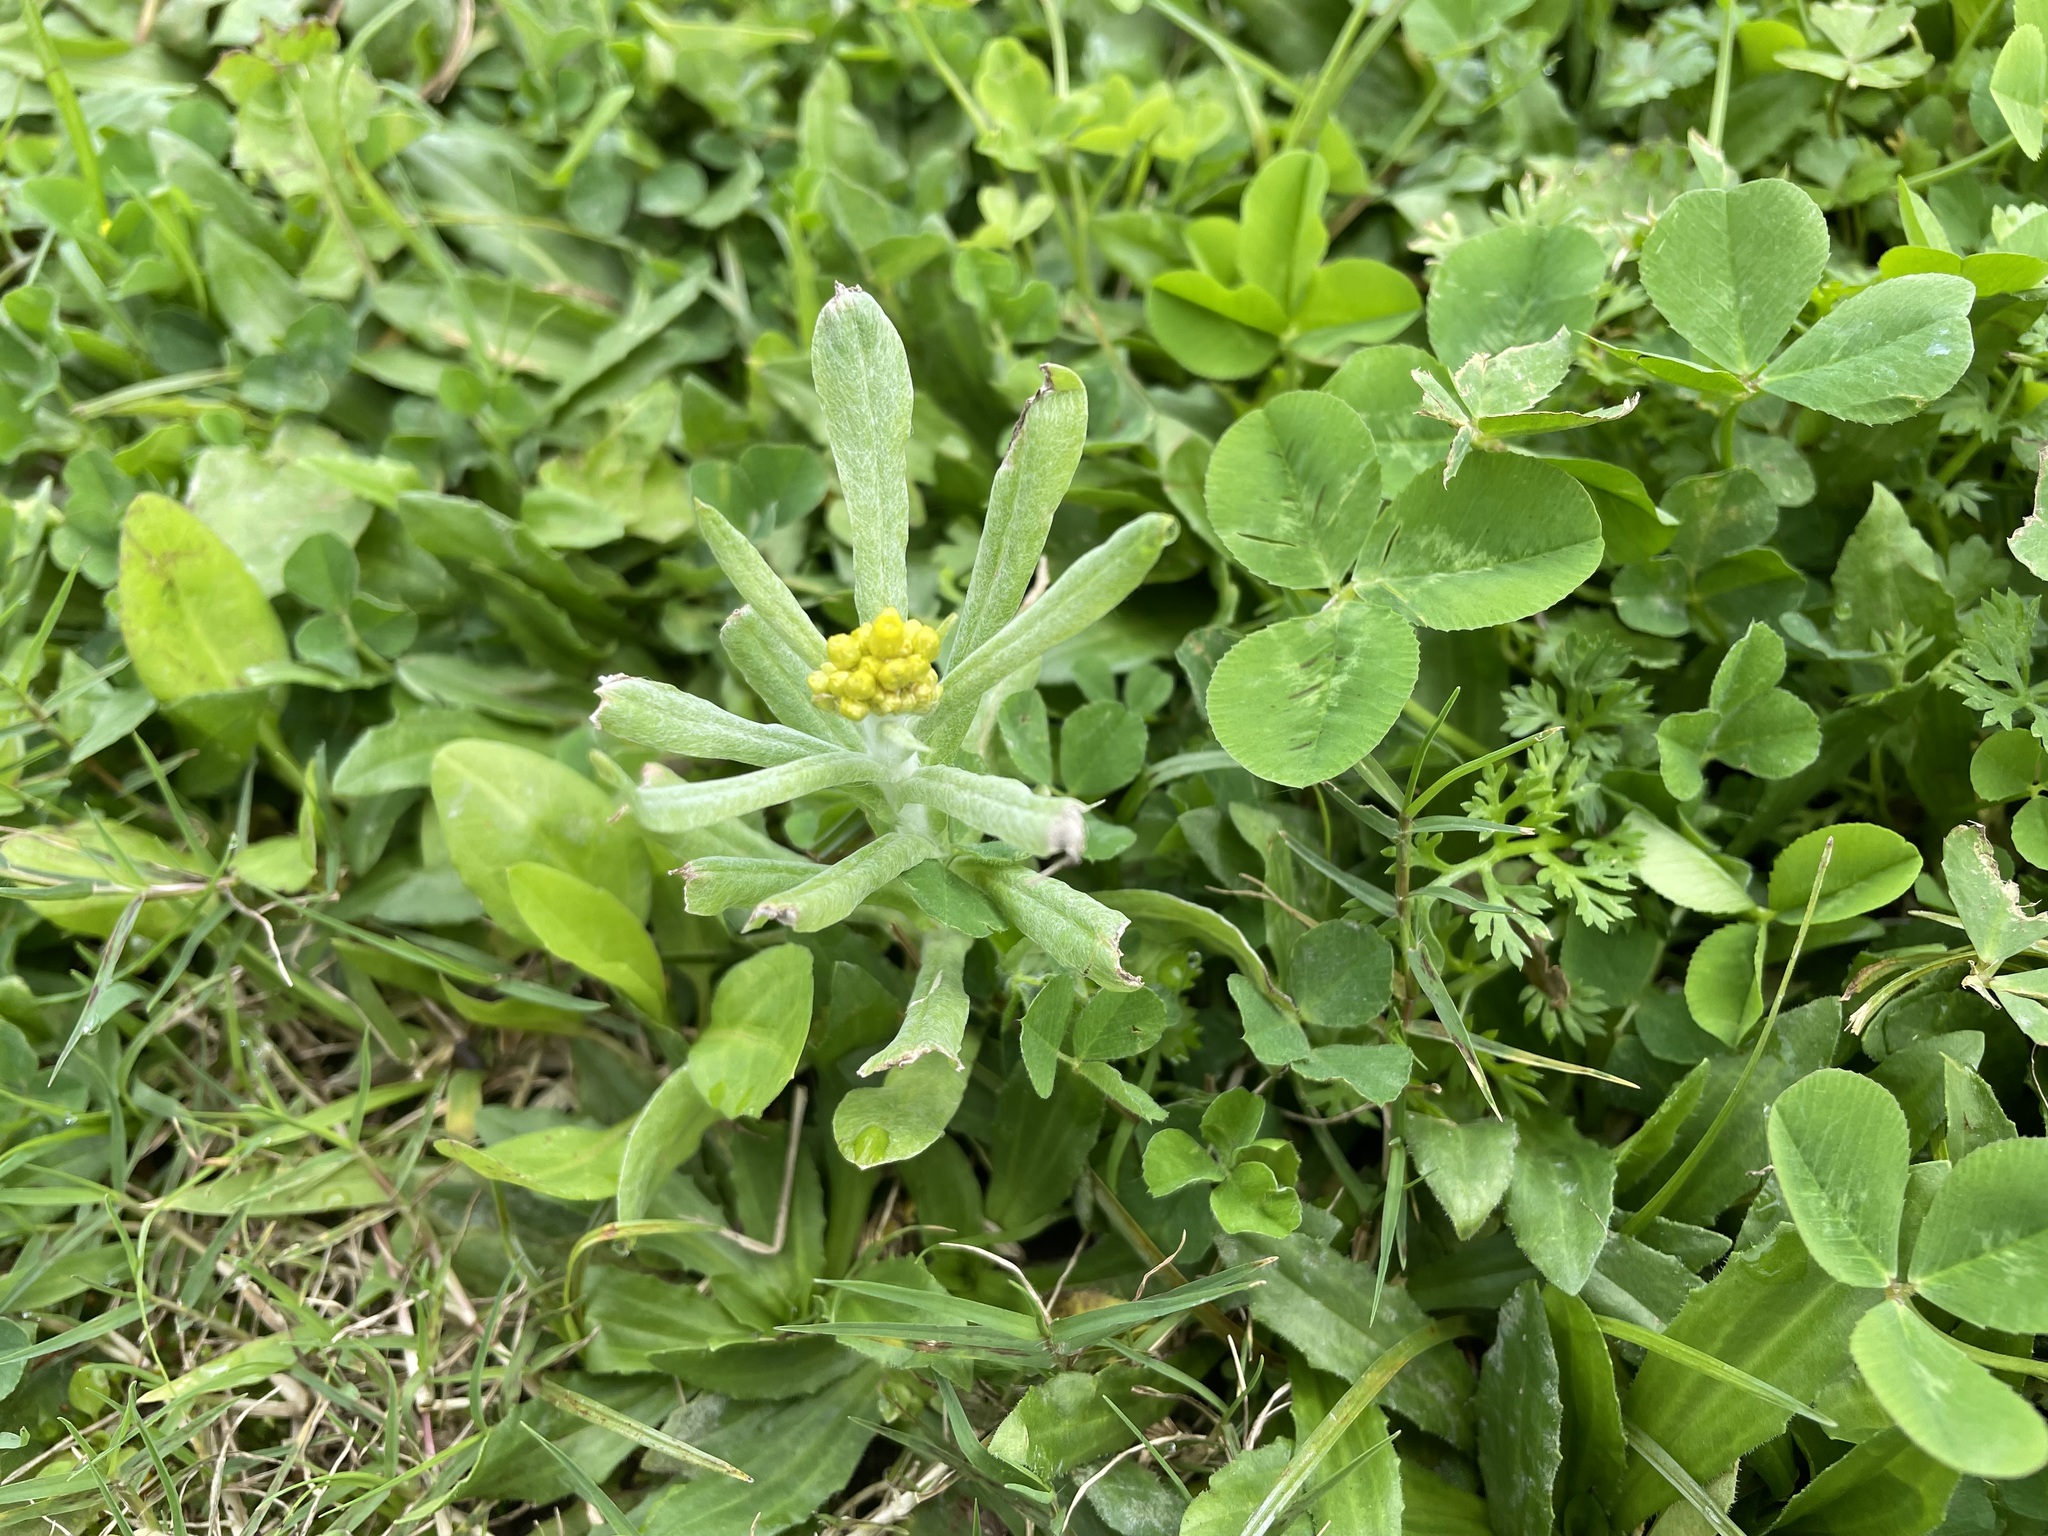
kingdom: Plantae
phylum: Tracheophyta
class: Magnoliopsida
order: Asterales
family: Asteraceae
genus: Pseudognaphalium
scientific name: Pseudognaphalium affine
